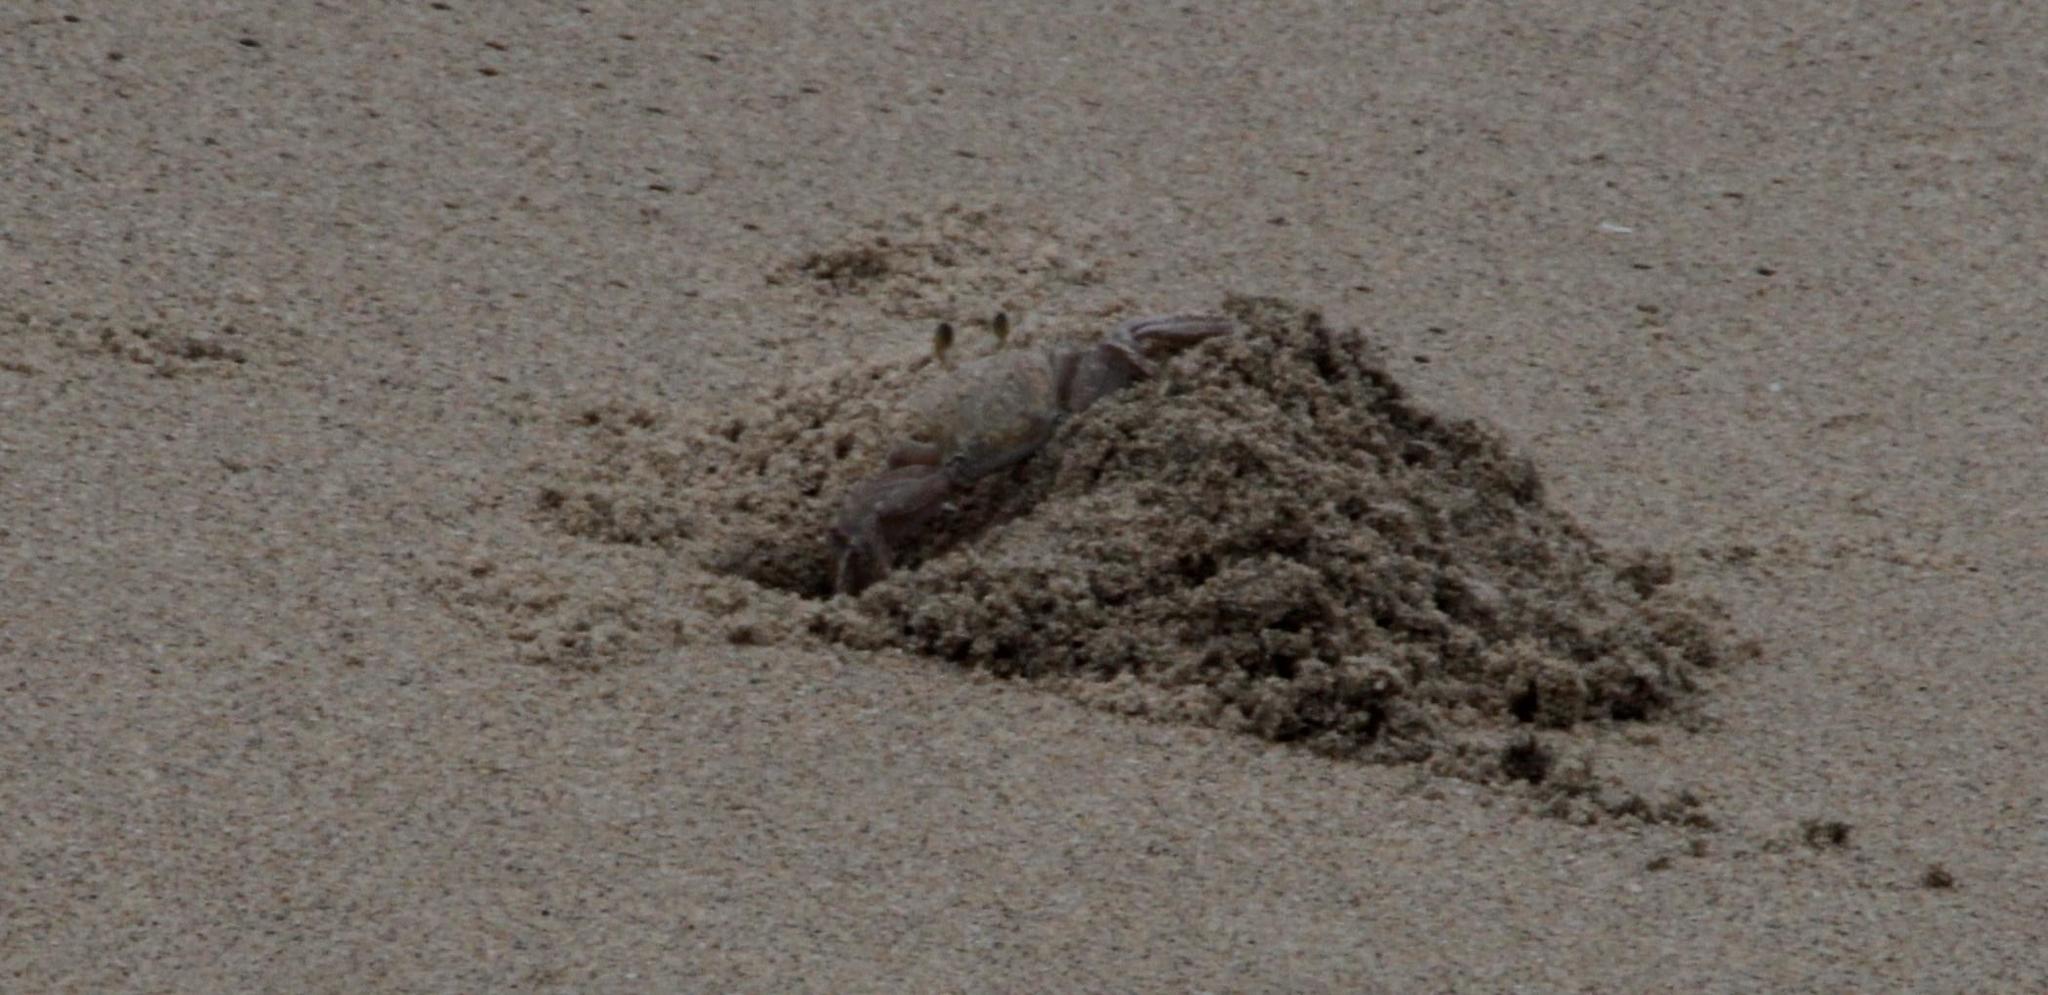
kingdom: Animalia
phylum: Arthropoda
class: Malacostraca
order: Decapoda
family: Ocypodidae
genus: Ocypode
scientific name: Ocypode ryderi
